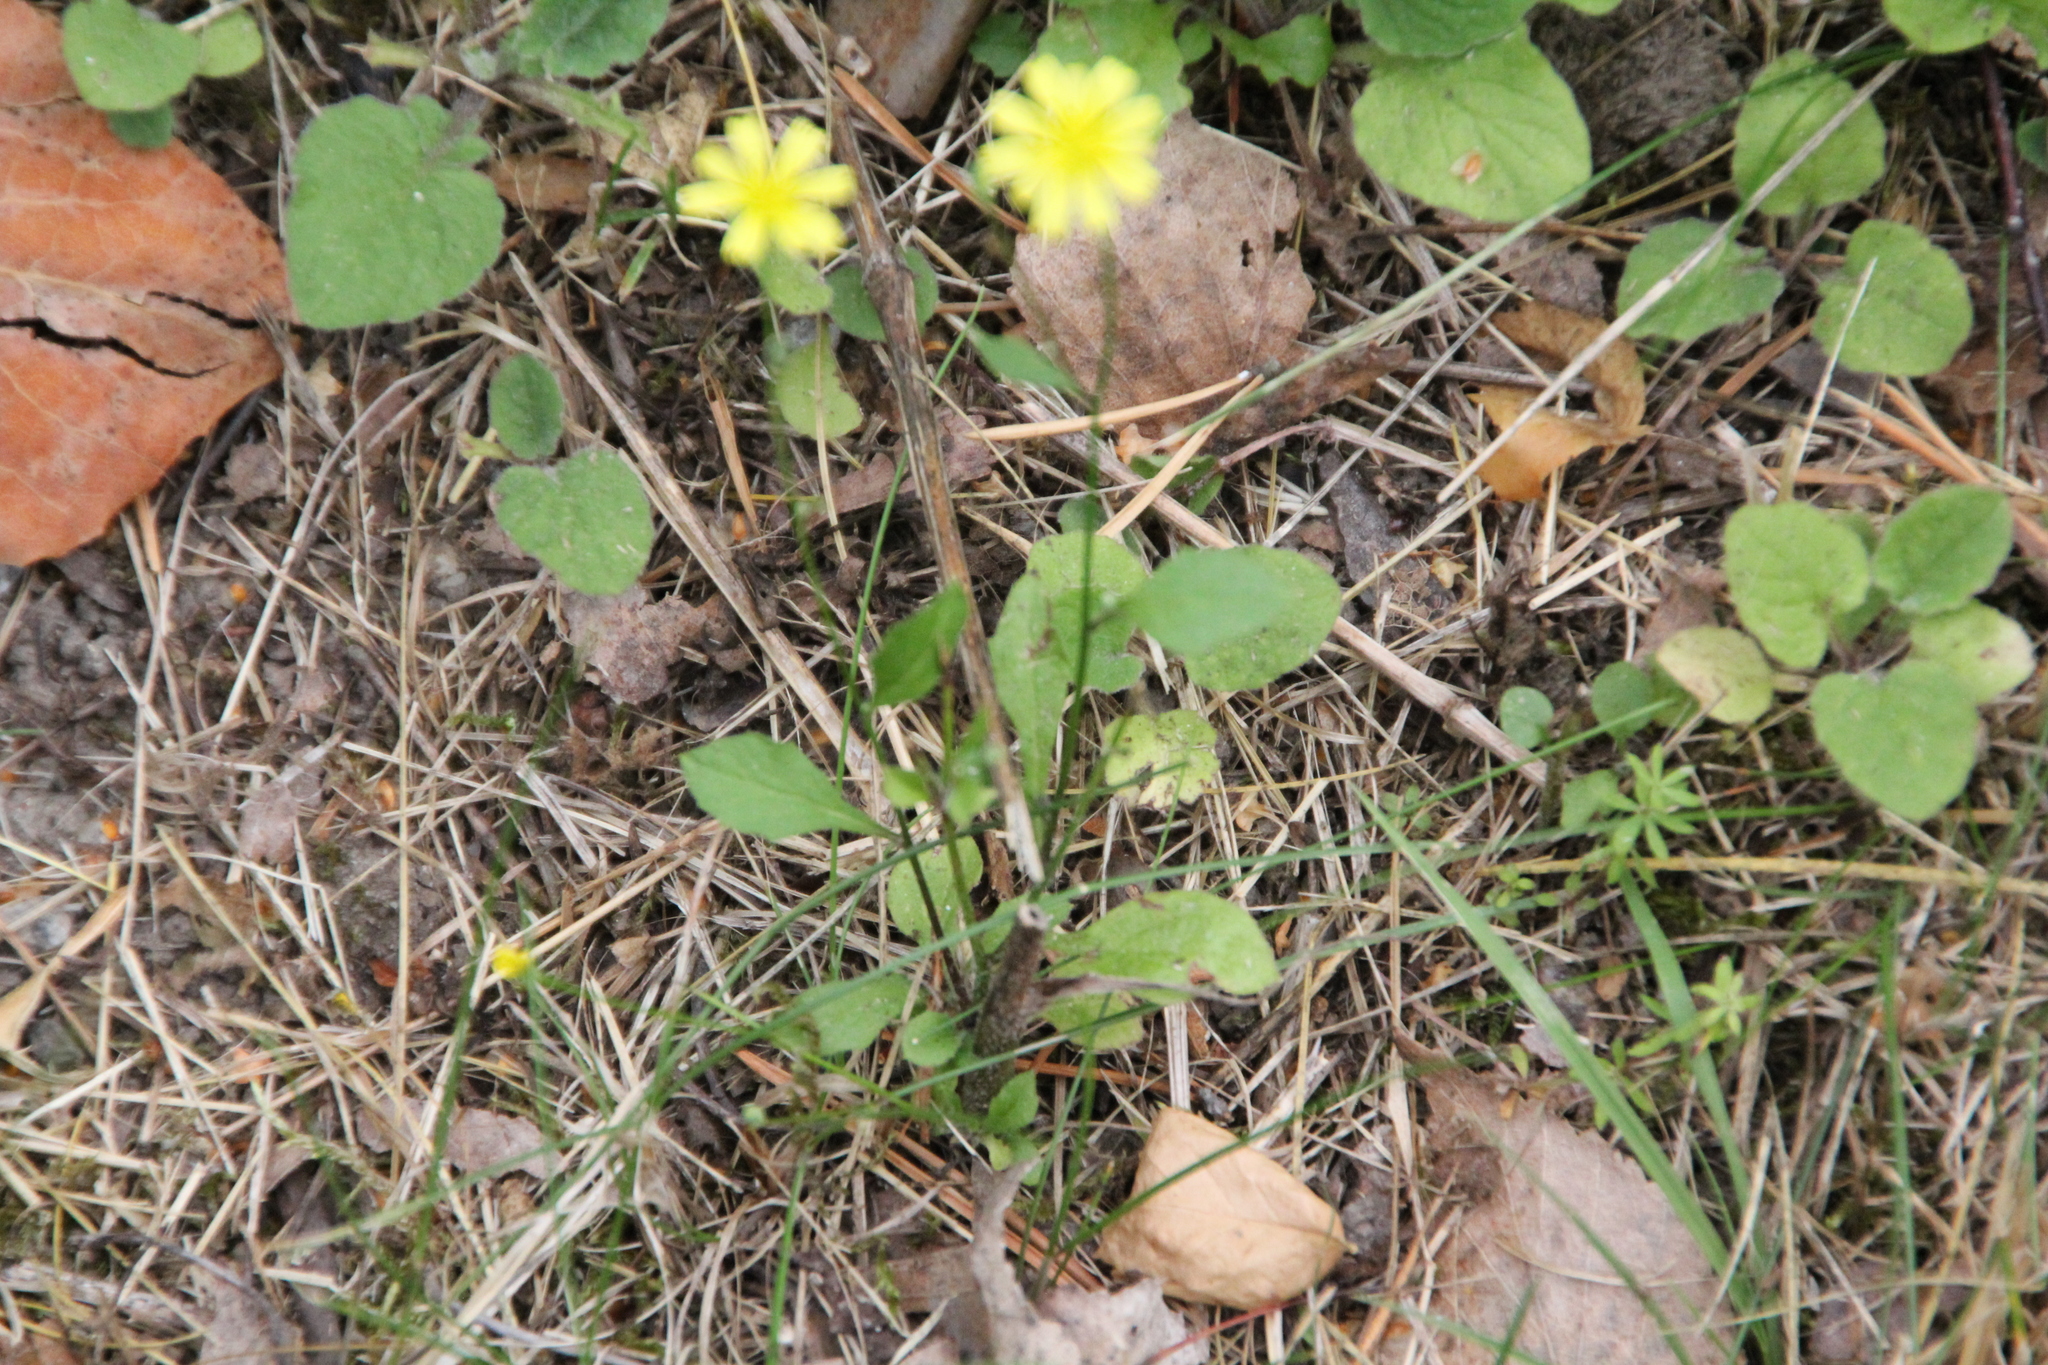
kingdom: Plantae
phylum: Tracheophyta
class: Magnoliopsida
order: Asterales
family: Asteraceae
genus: Lapsana
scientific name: Lapsana communis
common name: Nipplewort
